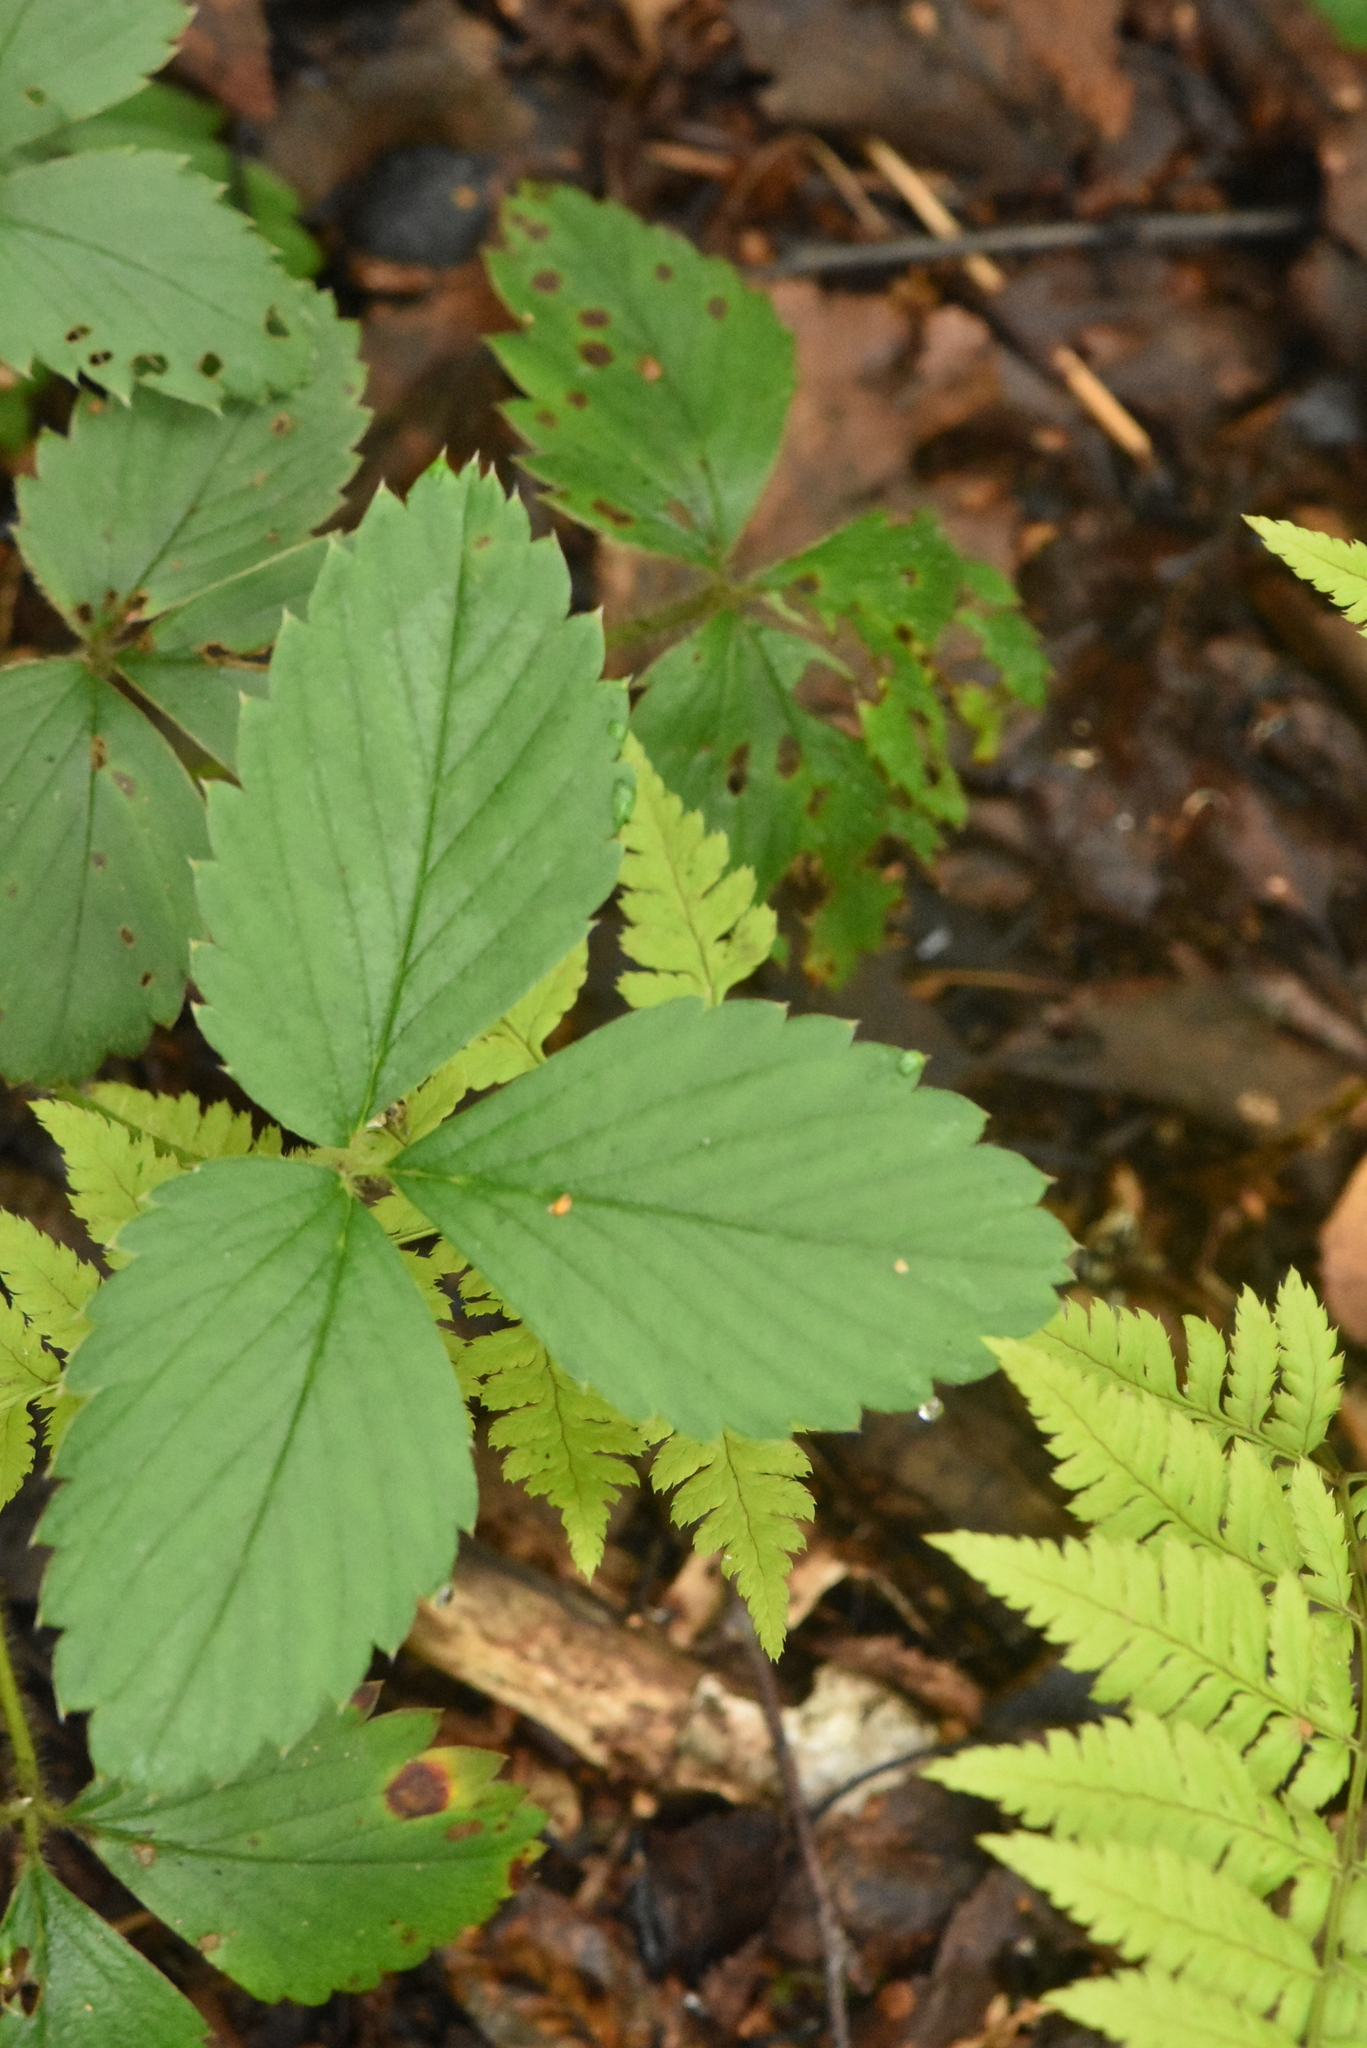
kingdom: Plantae
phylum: Tracheophyta
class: Magnoliopsida
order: Rosales
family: Rosaceae
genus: Fragaria
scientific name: Fragaria moschata
